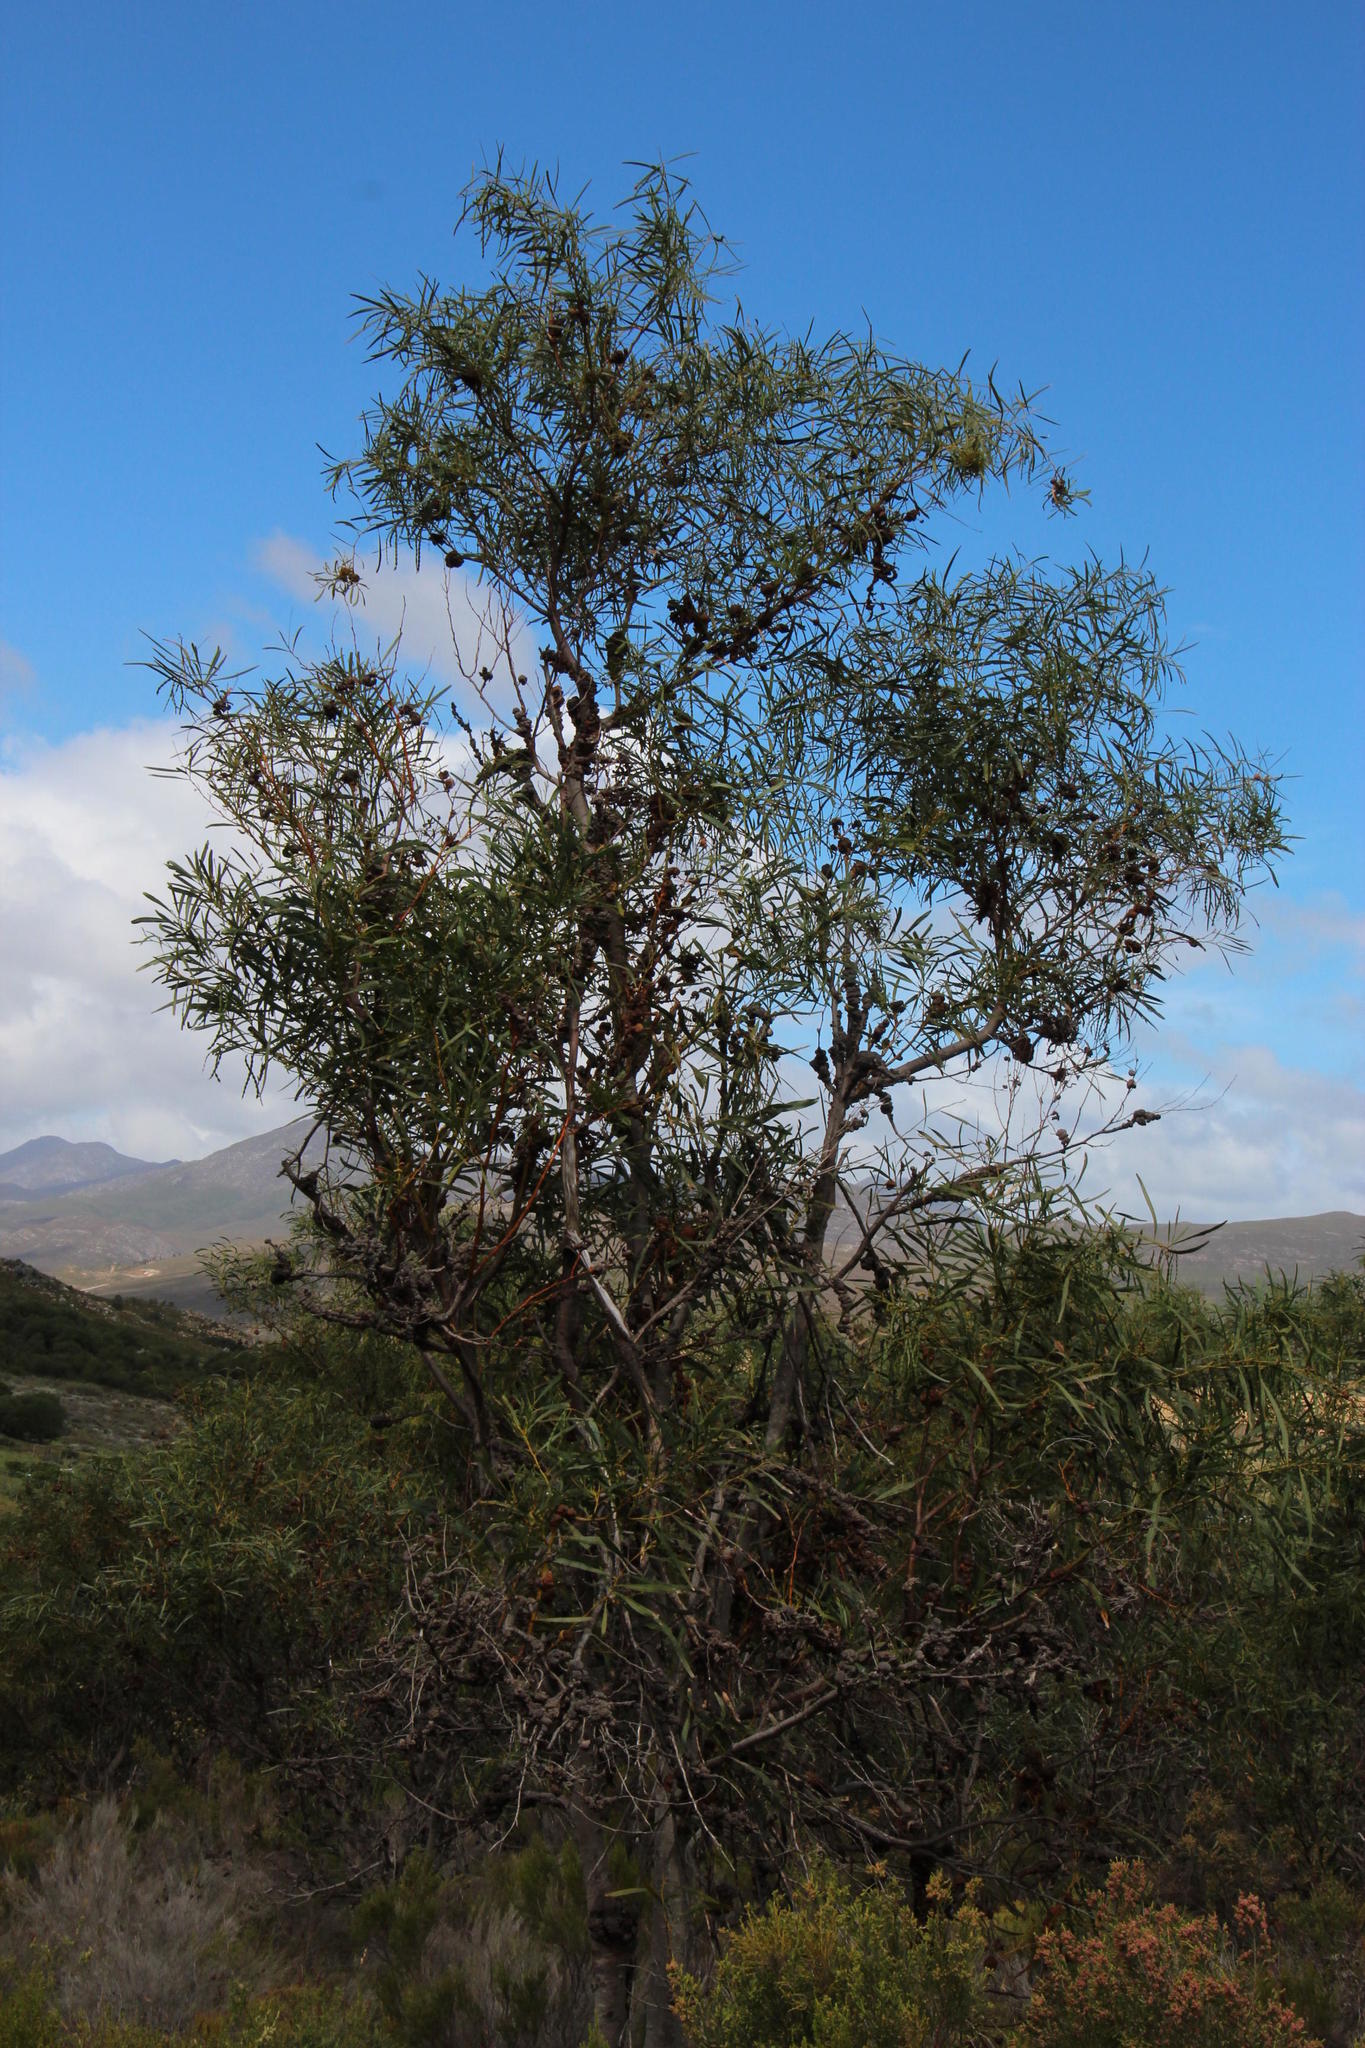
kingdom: Plantae
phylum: Tracheophyta
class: Magnoliopsida
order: Fabales
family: Fabaceae
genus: Acacia
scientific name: Acacia saligna
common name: Orange wattle
